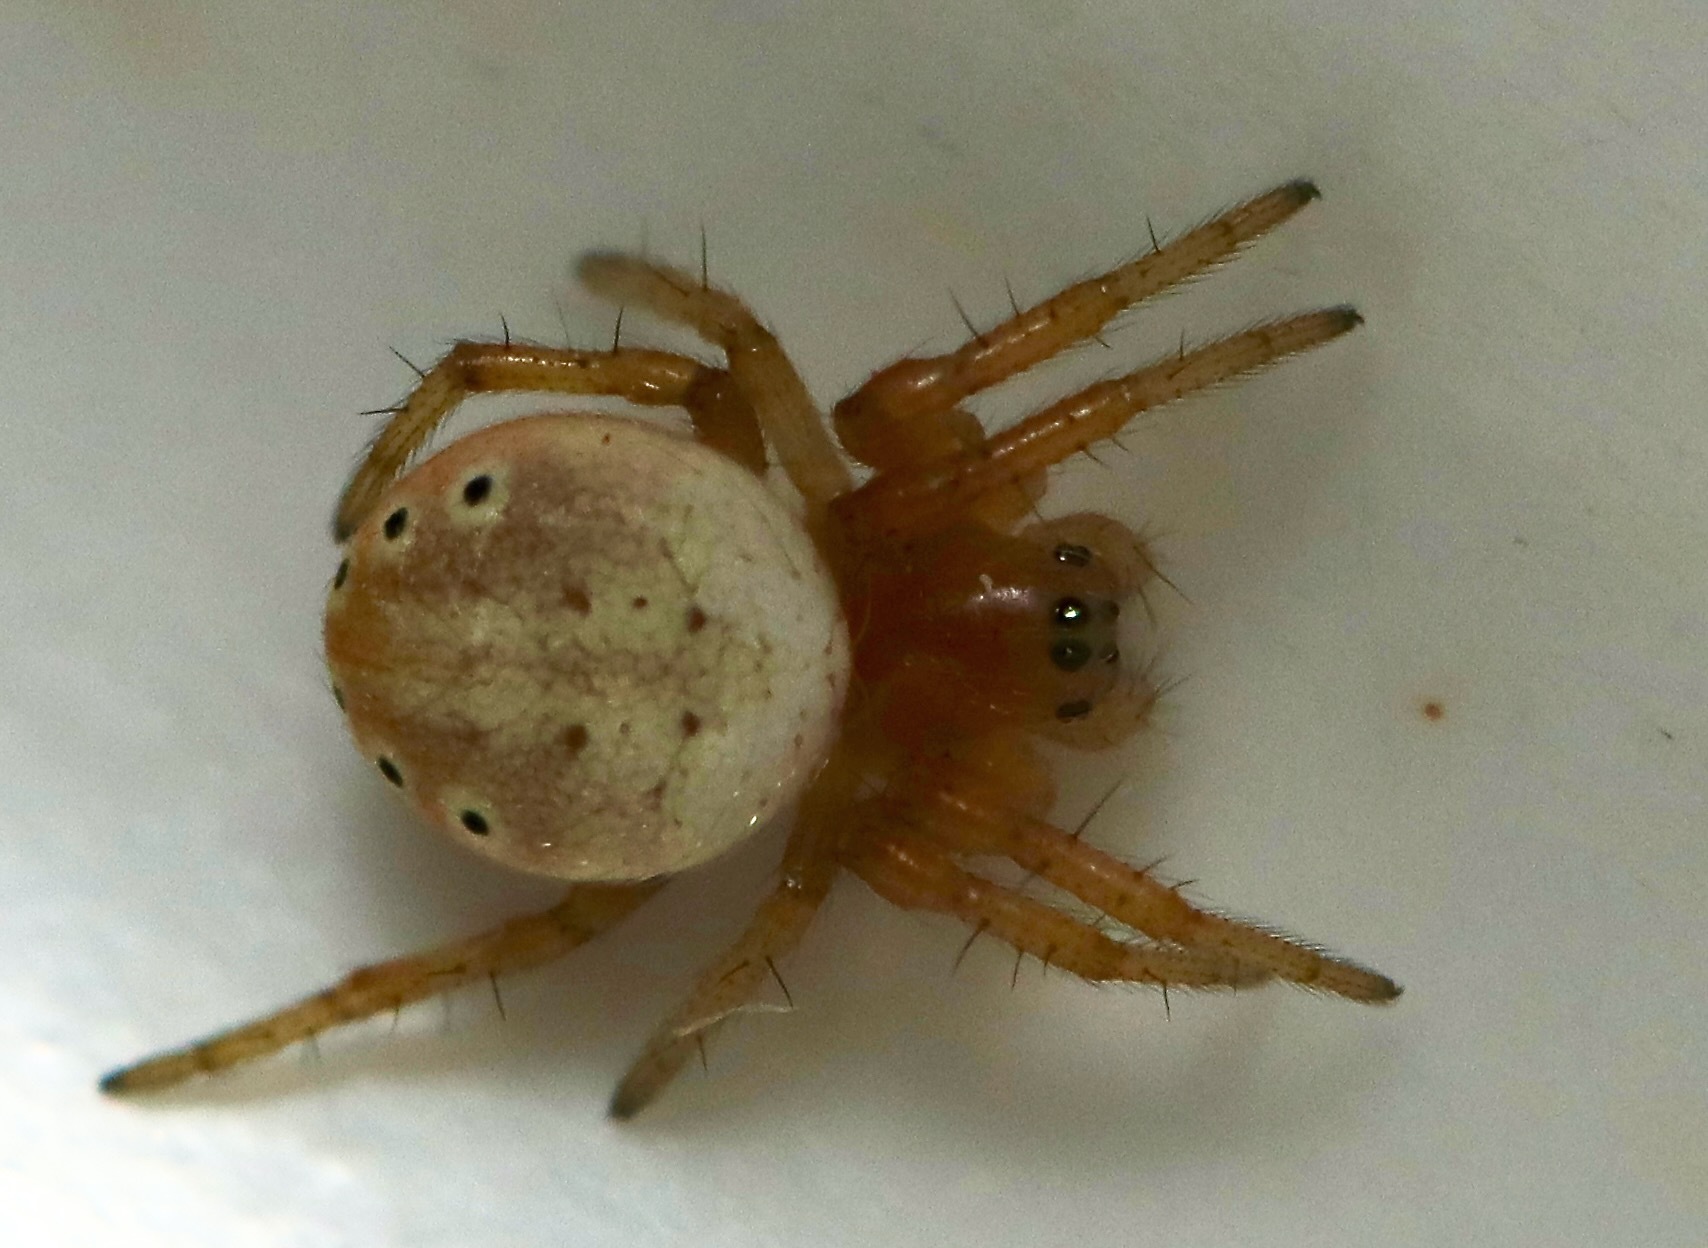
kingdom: Animalia
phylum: Arthropoda
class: Arachnida
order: Araneae
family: Araneidae
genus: Araniella
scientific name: Araniella displicata
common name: Sixspotted orb weaver
